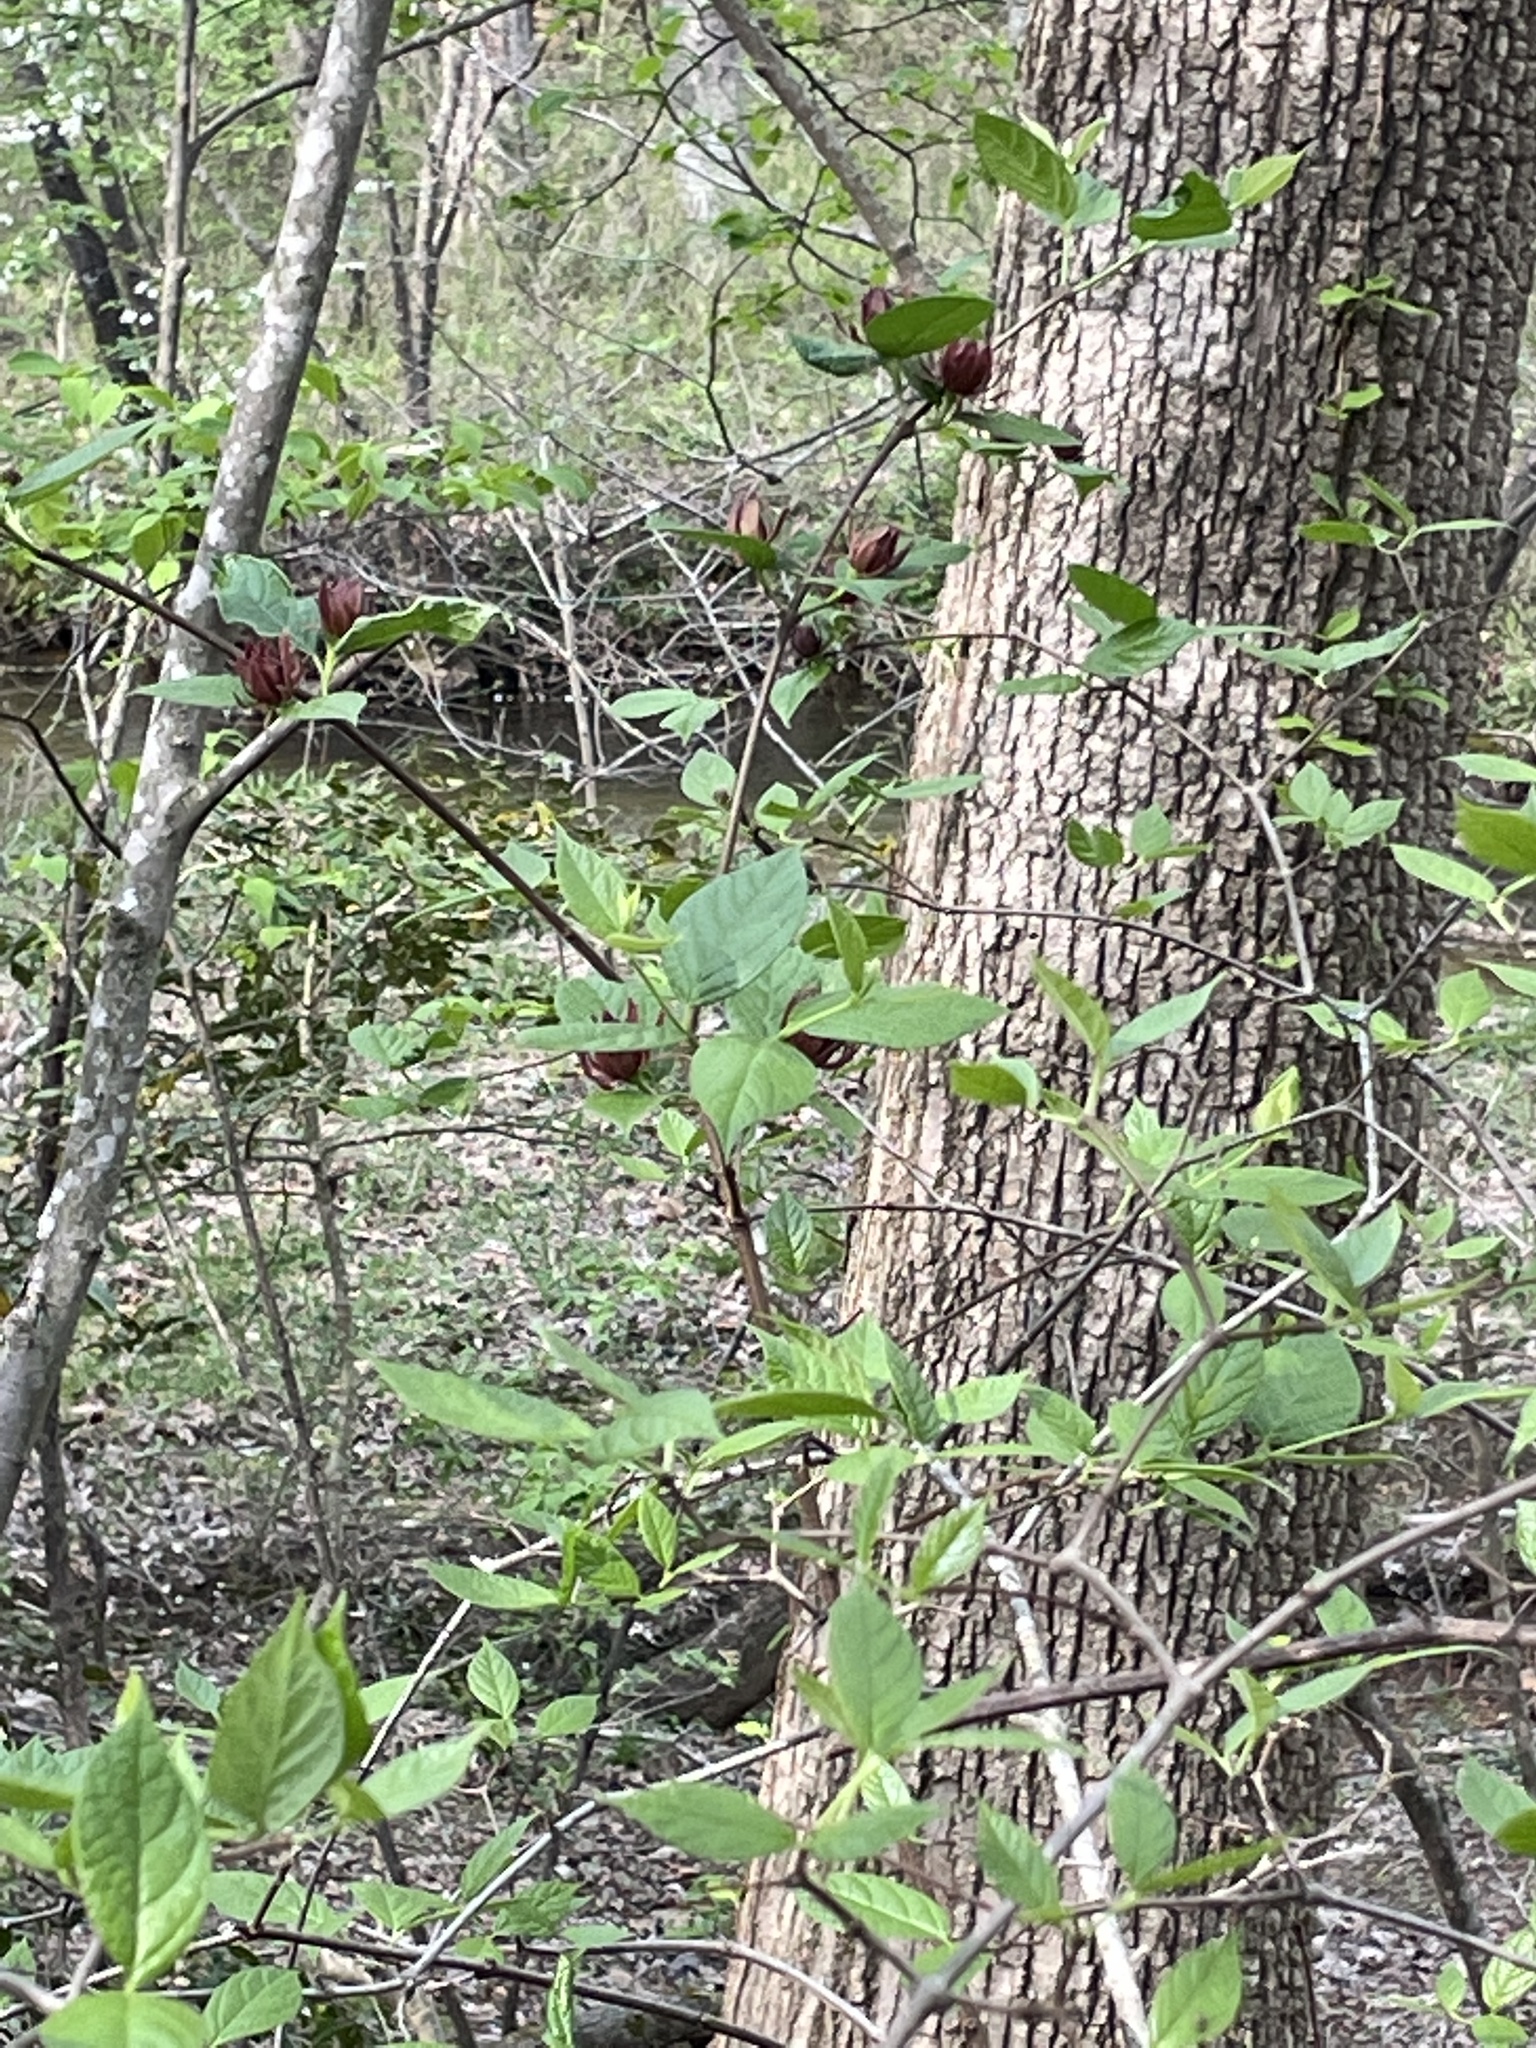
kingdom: Plantae
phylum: Tracheophyta
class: Magnoliopsida
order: Laurales
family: Calycanthaceae
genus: Calycanthus
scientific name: Calycanthus floridus
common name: Carolina-allspice
